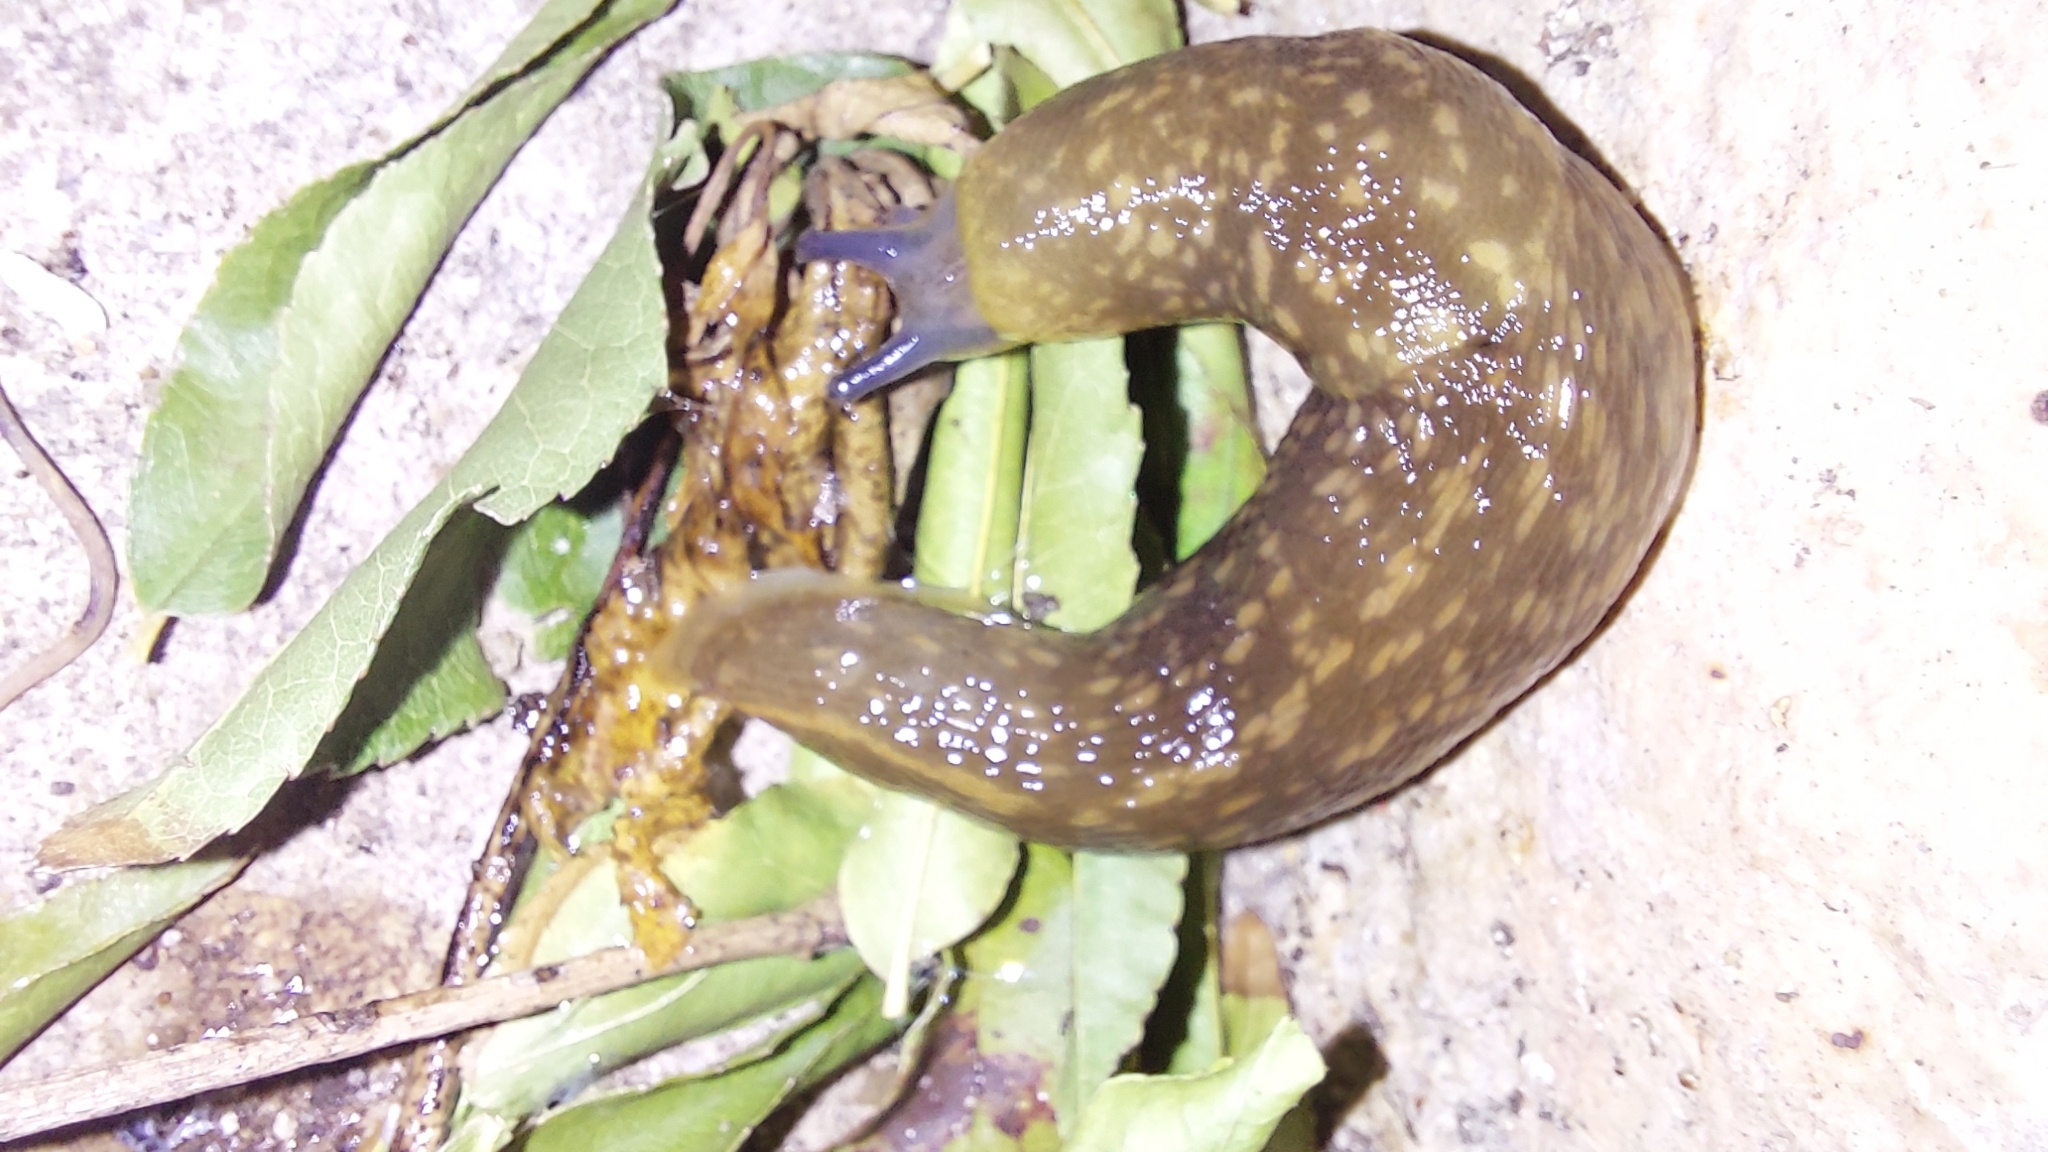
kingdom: Animalia
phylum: Mollusca
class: Gastropoda
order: Stylommatophora
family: Limacidae
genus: Limacus
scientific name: Limacus flavus
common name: Yellow gardenslug
